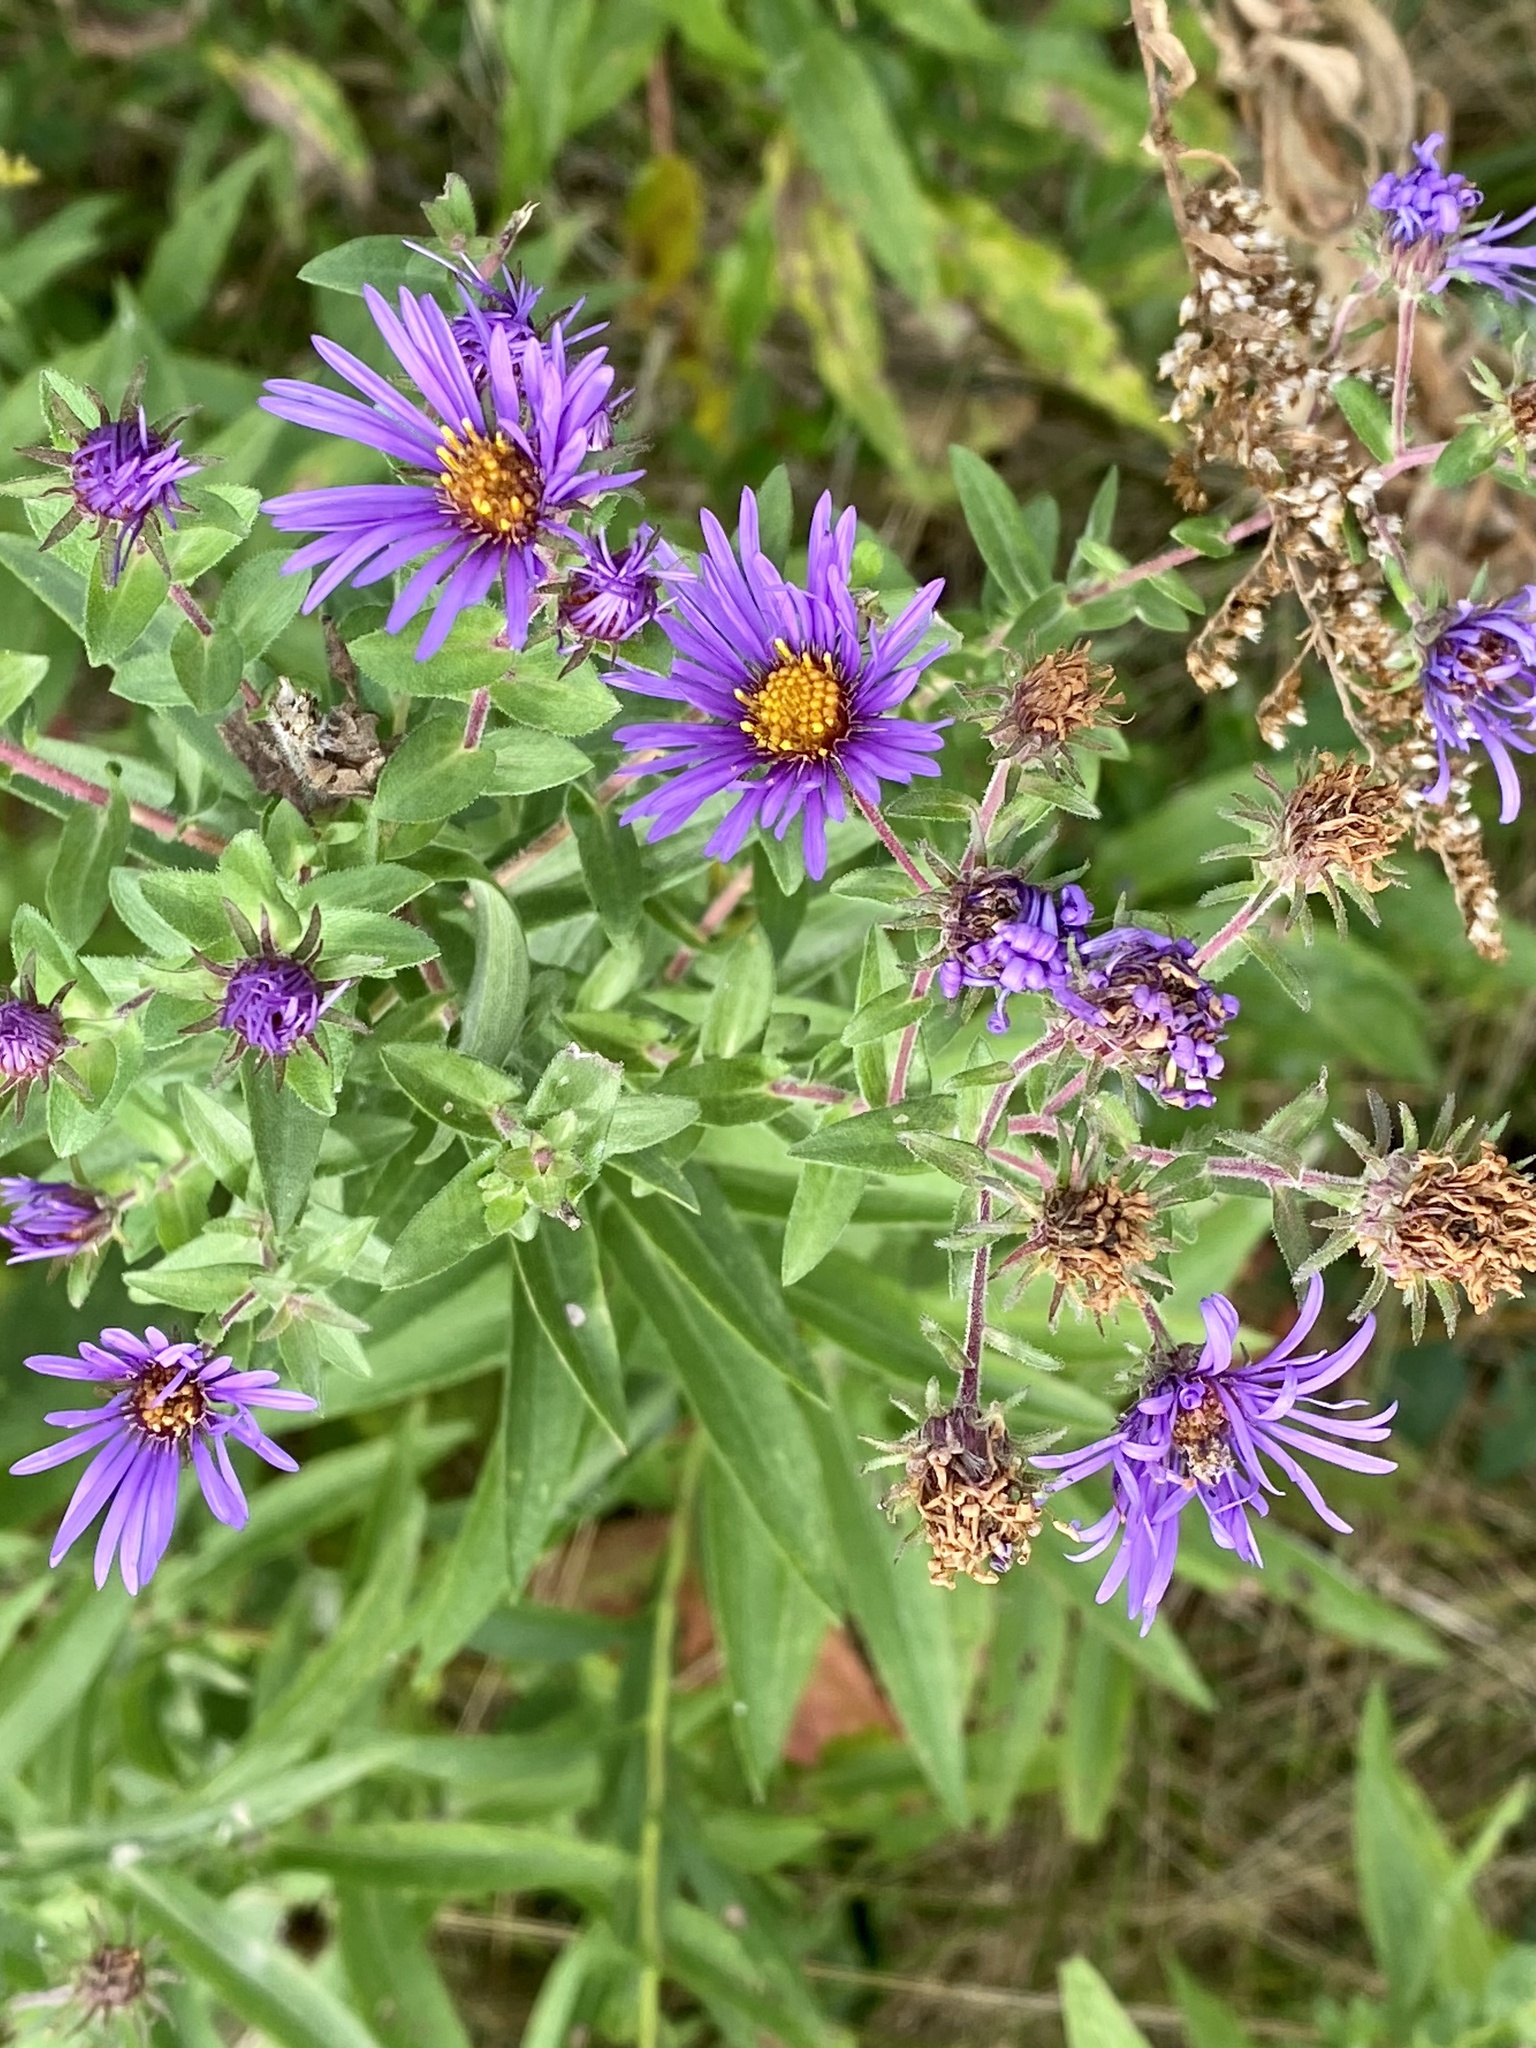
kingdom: Plantae
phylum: Tracheophyta
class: Magnoliopsida
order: Asterales
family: Asteraceae
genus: Symphyotrichum
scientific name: Symphyotrichum novae-angliae
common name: Michaelmas daisy
